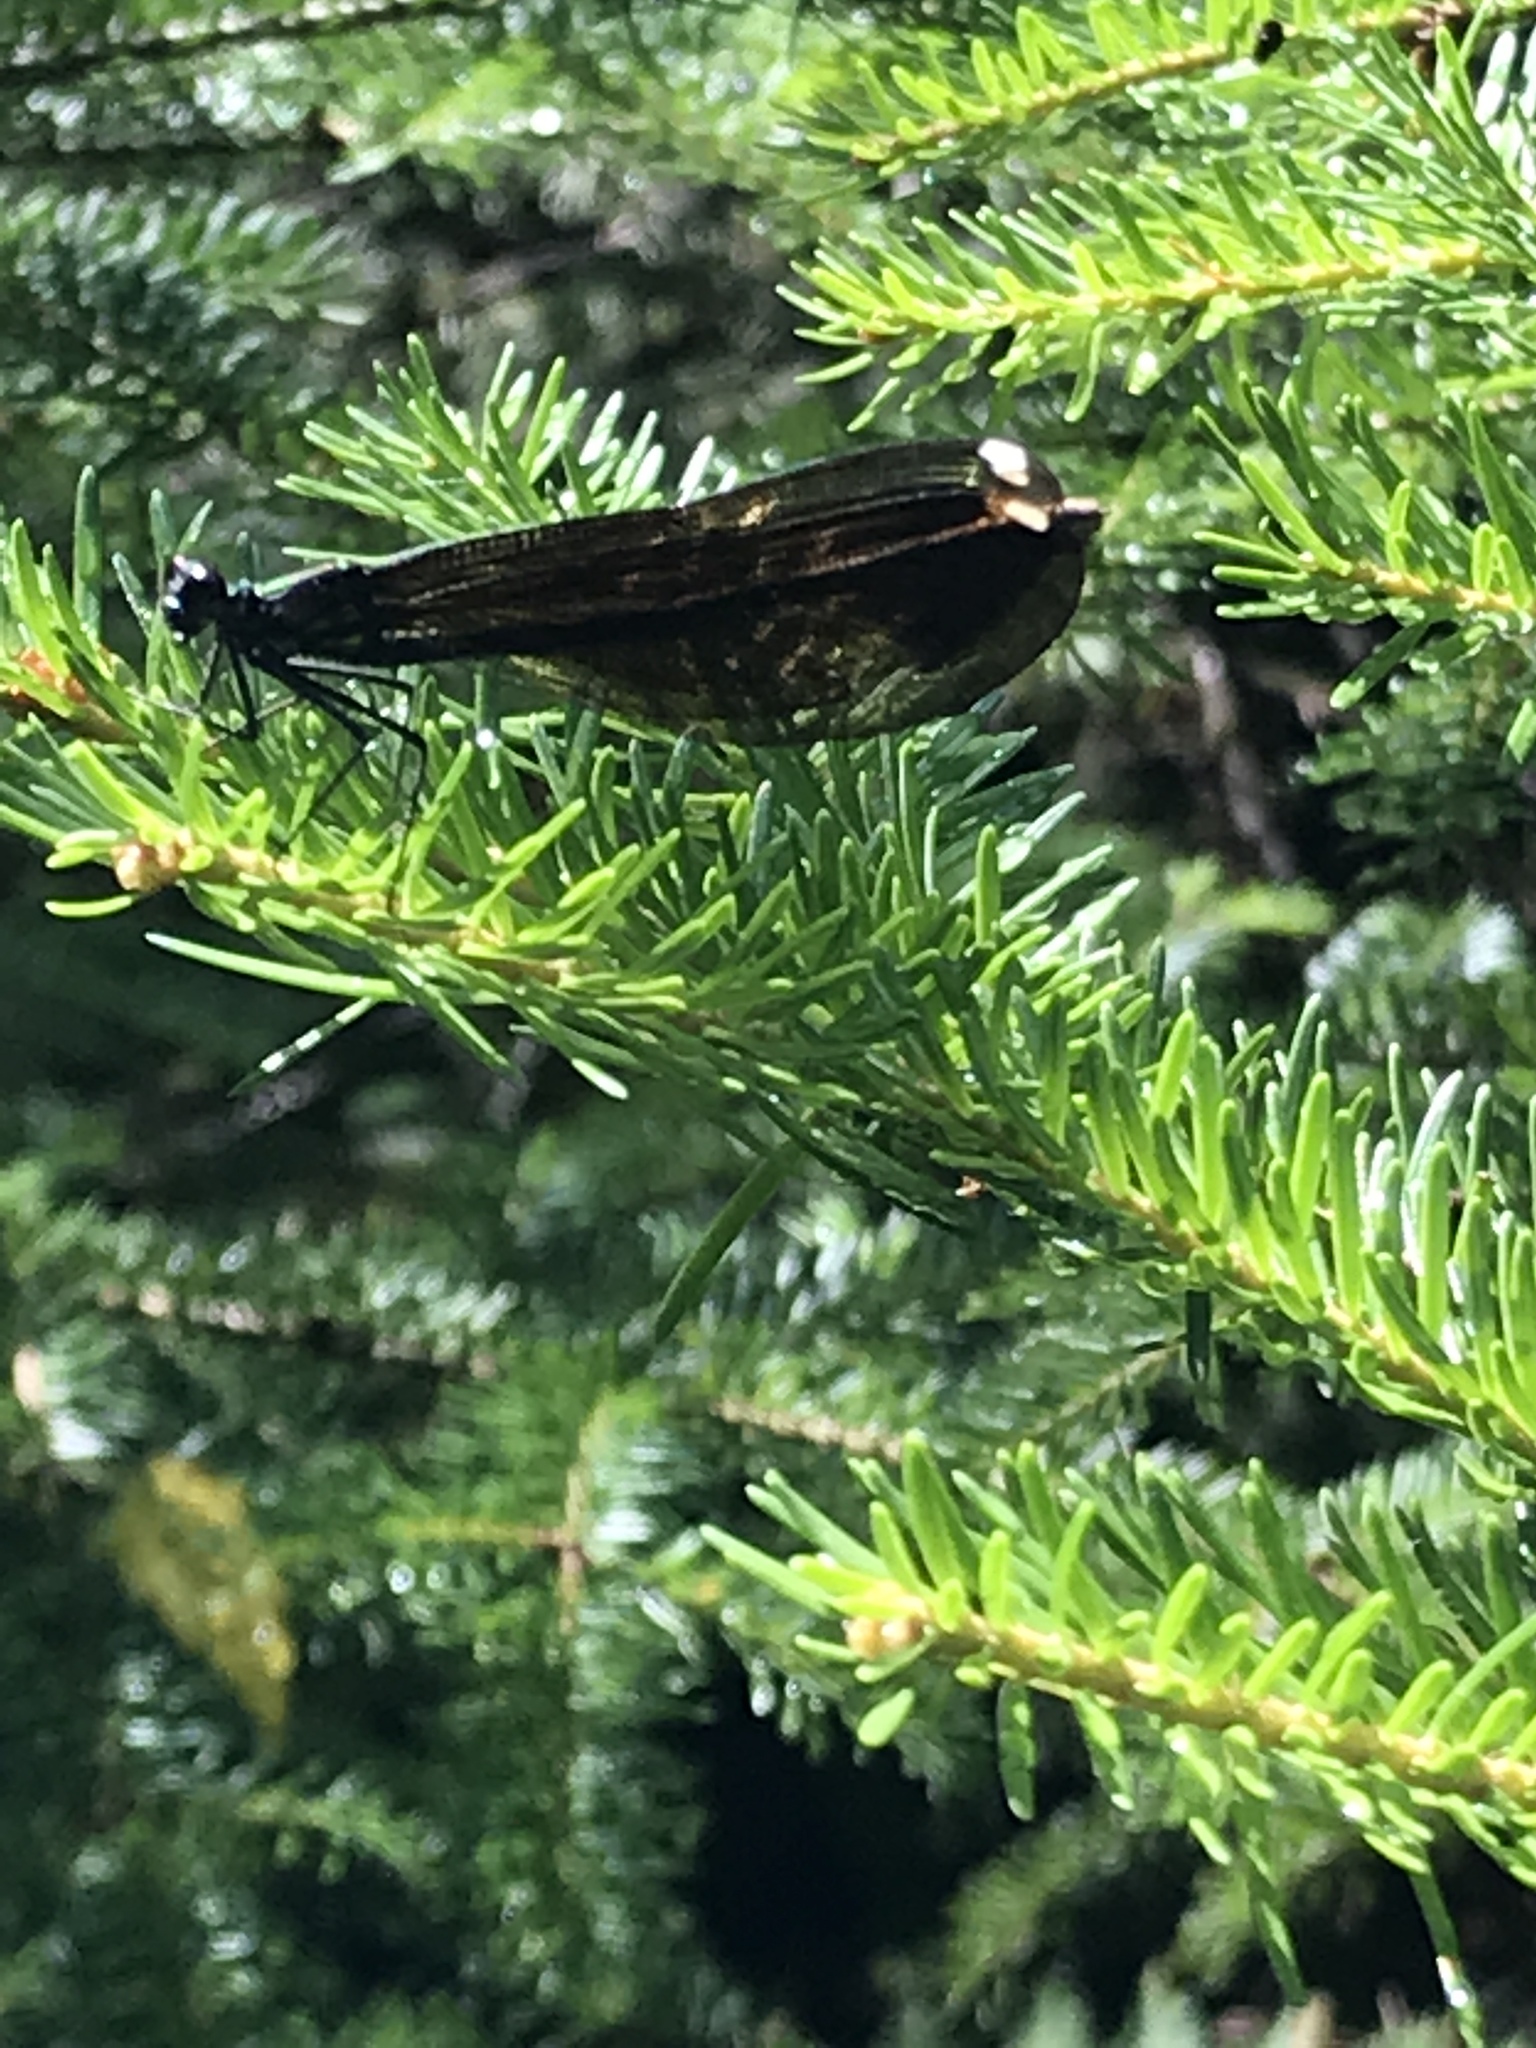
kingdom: Animalia
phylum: Arthropoda
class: Insecta
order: Odonata
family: Calopterygidae
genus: Calopteryx
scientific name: Calopteryx maculata
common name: Ebony jewelwing
